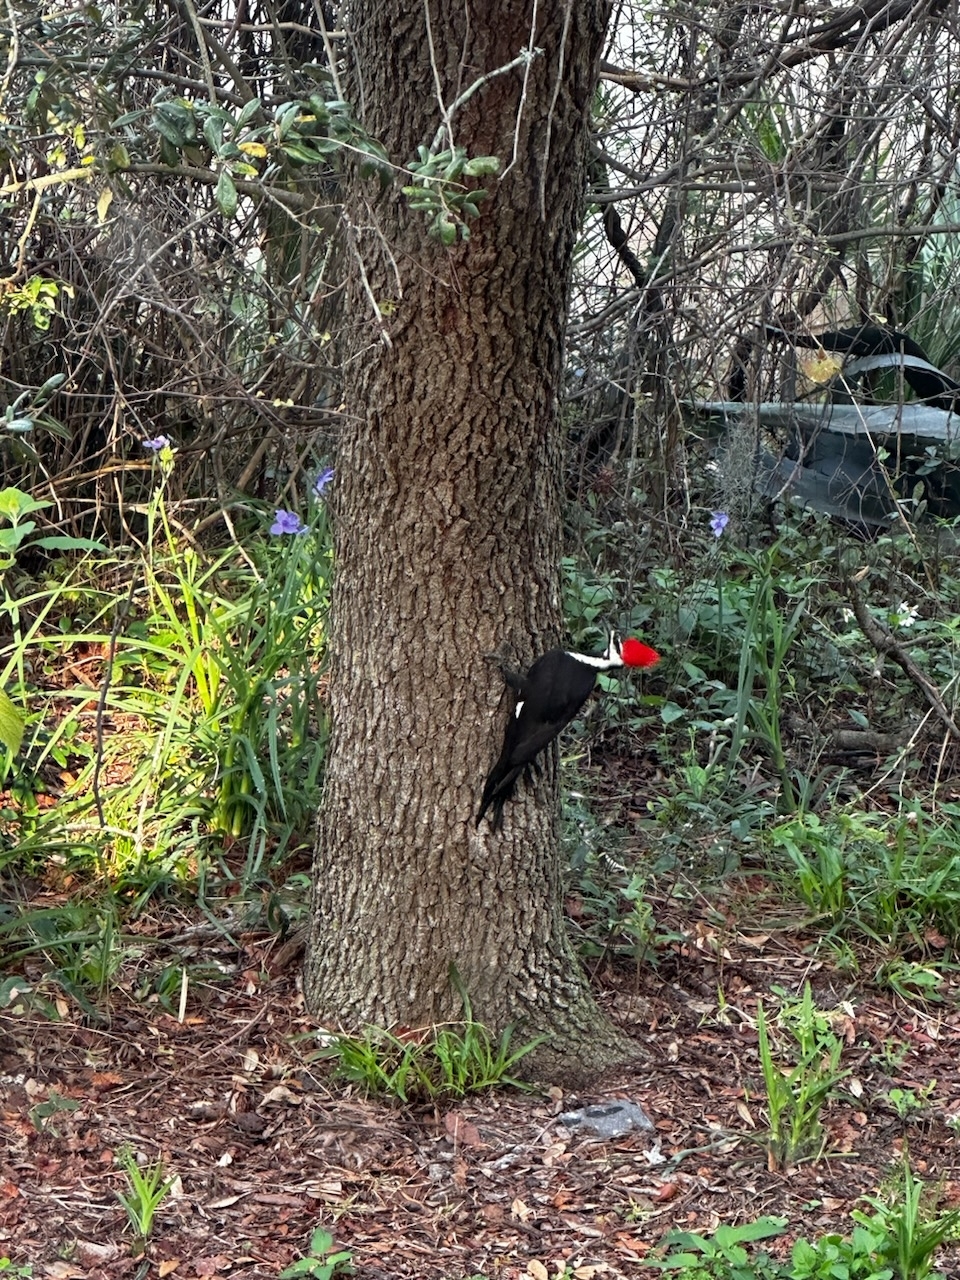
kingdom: Animalia
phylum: Chordata
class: Aves
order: Piciformes
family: Picidae
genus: Dryocopus
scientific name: Dryocopus pileatus
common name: Pileated woodpecker
